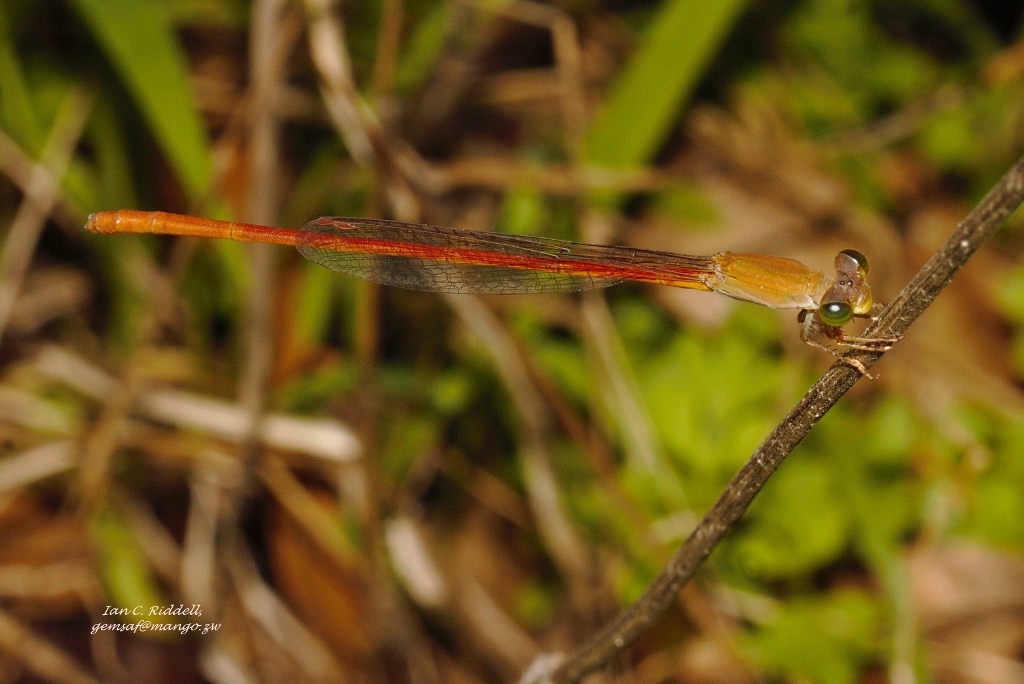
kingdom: Animalia
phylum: Arthropoda
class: Insecta
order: Odonata
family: Coenagrionidae
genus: Ceriagrion
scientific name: Ceriagrion glabrum
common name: Common pond damsel
